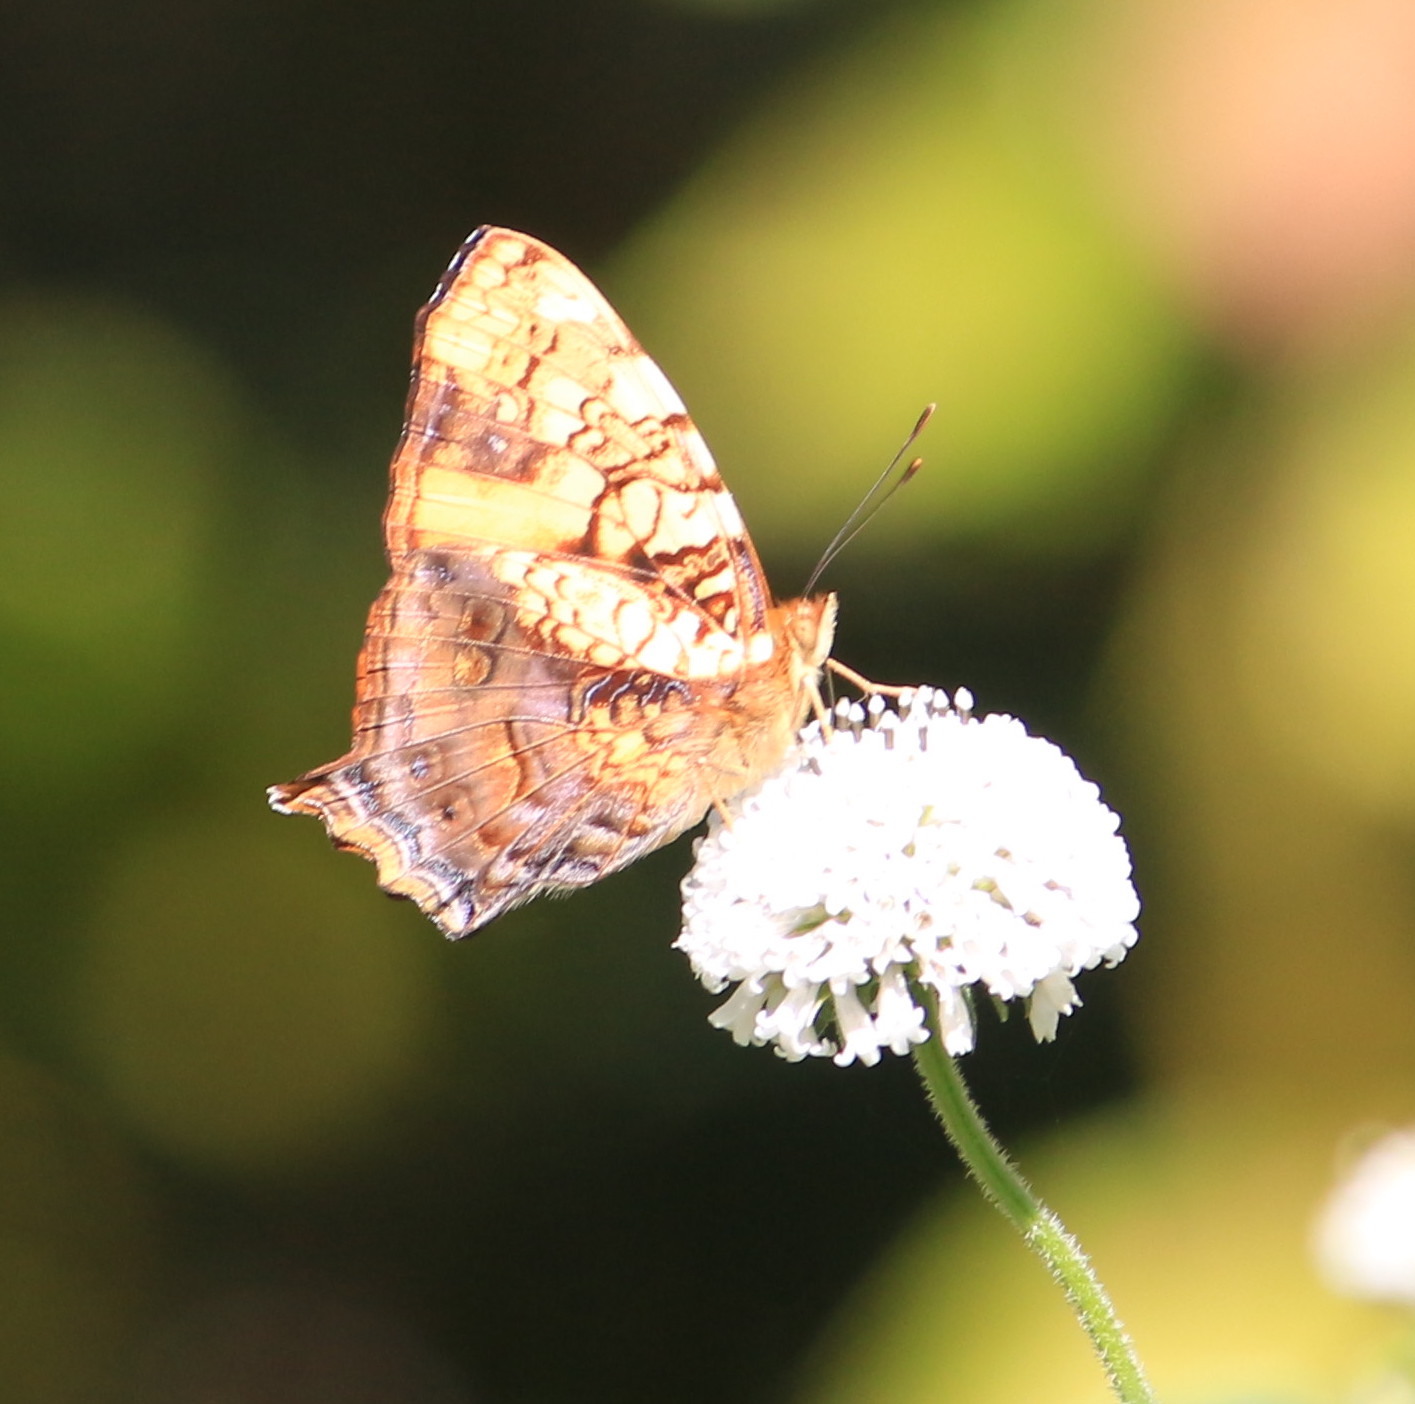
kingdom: Animalia
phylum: Arthropoda
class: Insecta
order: Lepidoptera
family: Nymphalidae
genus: Hypanartia
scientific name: Hypanartia lethe
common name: Orange mapwing
